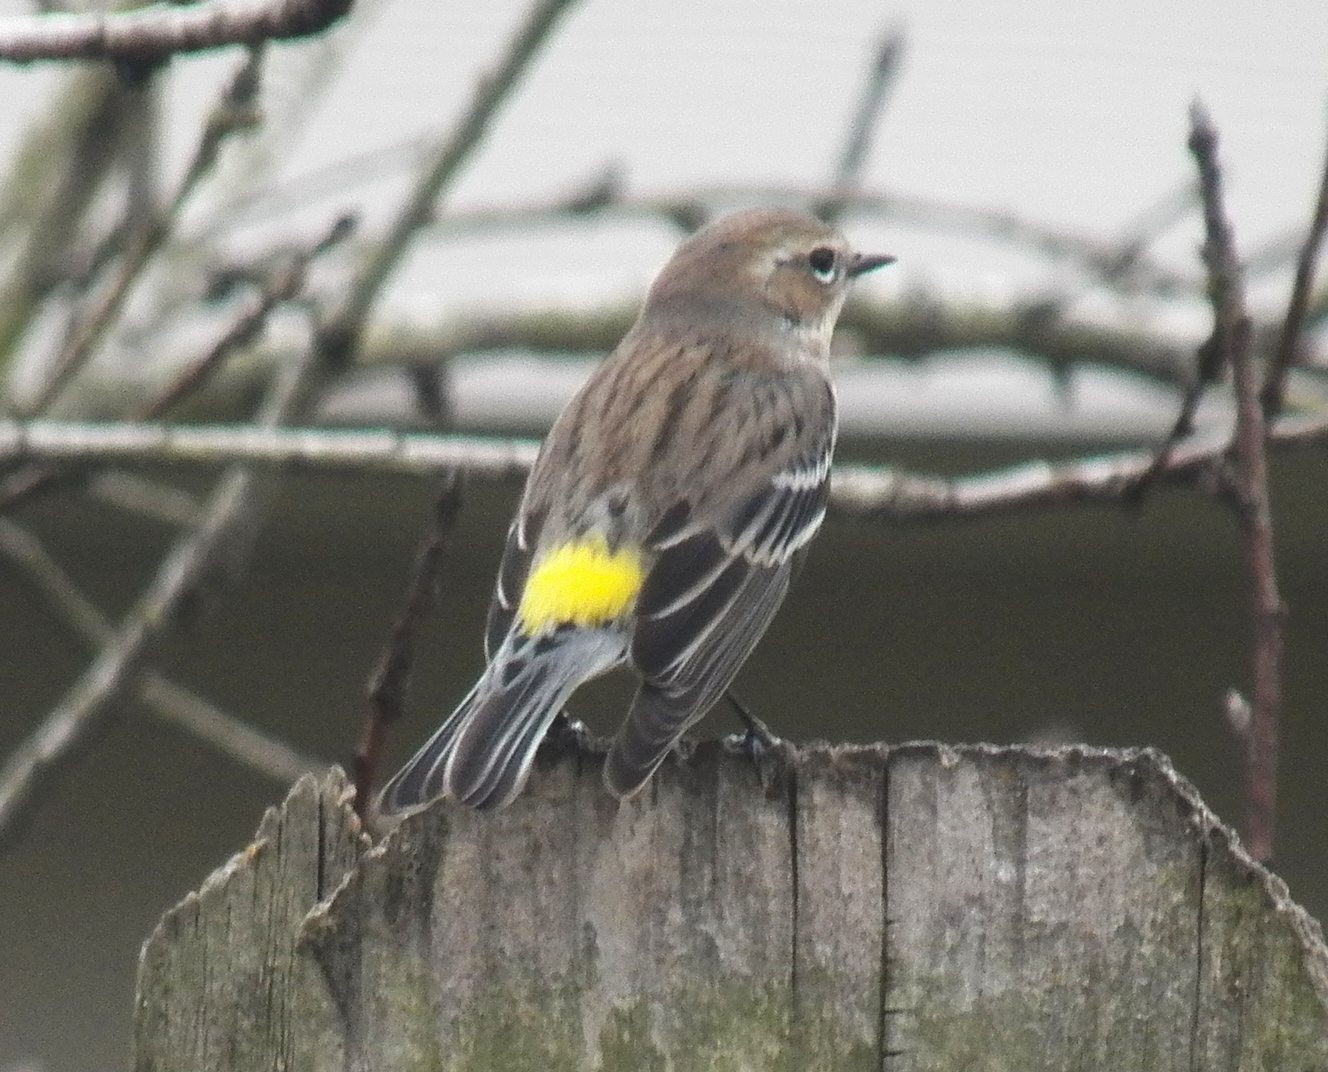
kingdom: Animalia
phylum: Chordata
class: Aves
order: Passeriformes
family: Parulidae
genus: Setophaga
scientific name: Setophaga coronata
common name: Myrtle warbler
